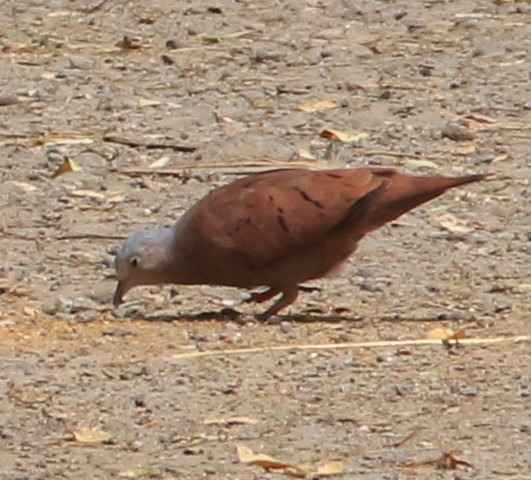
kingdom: Animalia
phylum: Chordata
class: Aves
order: Columbiformes
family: Columbidae
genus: Columbina
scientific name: Columbina talpacoti
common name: Ruddy ground dove
